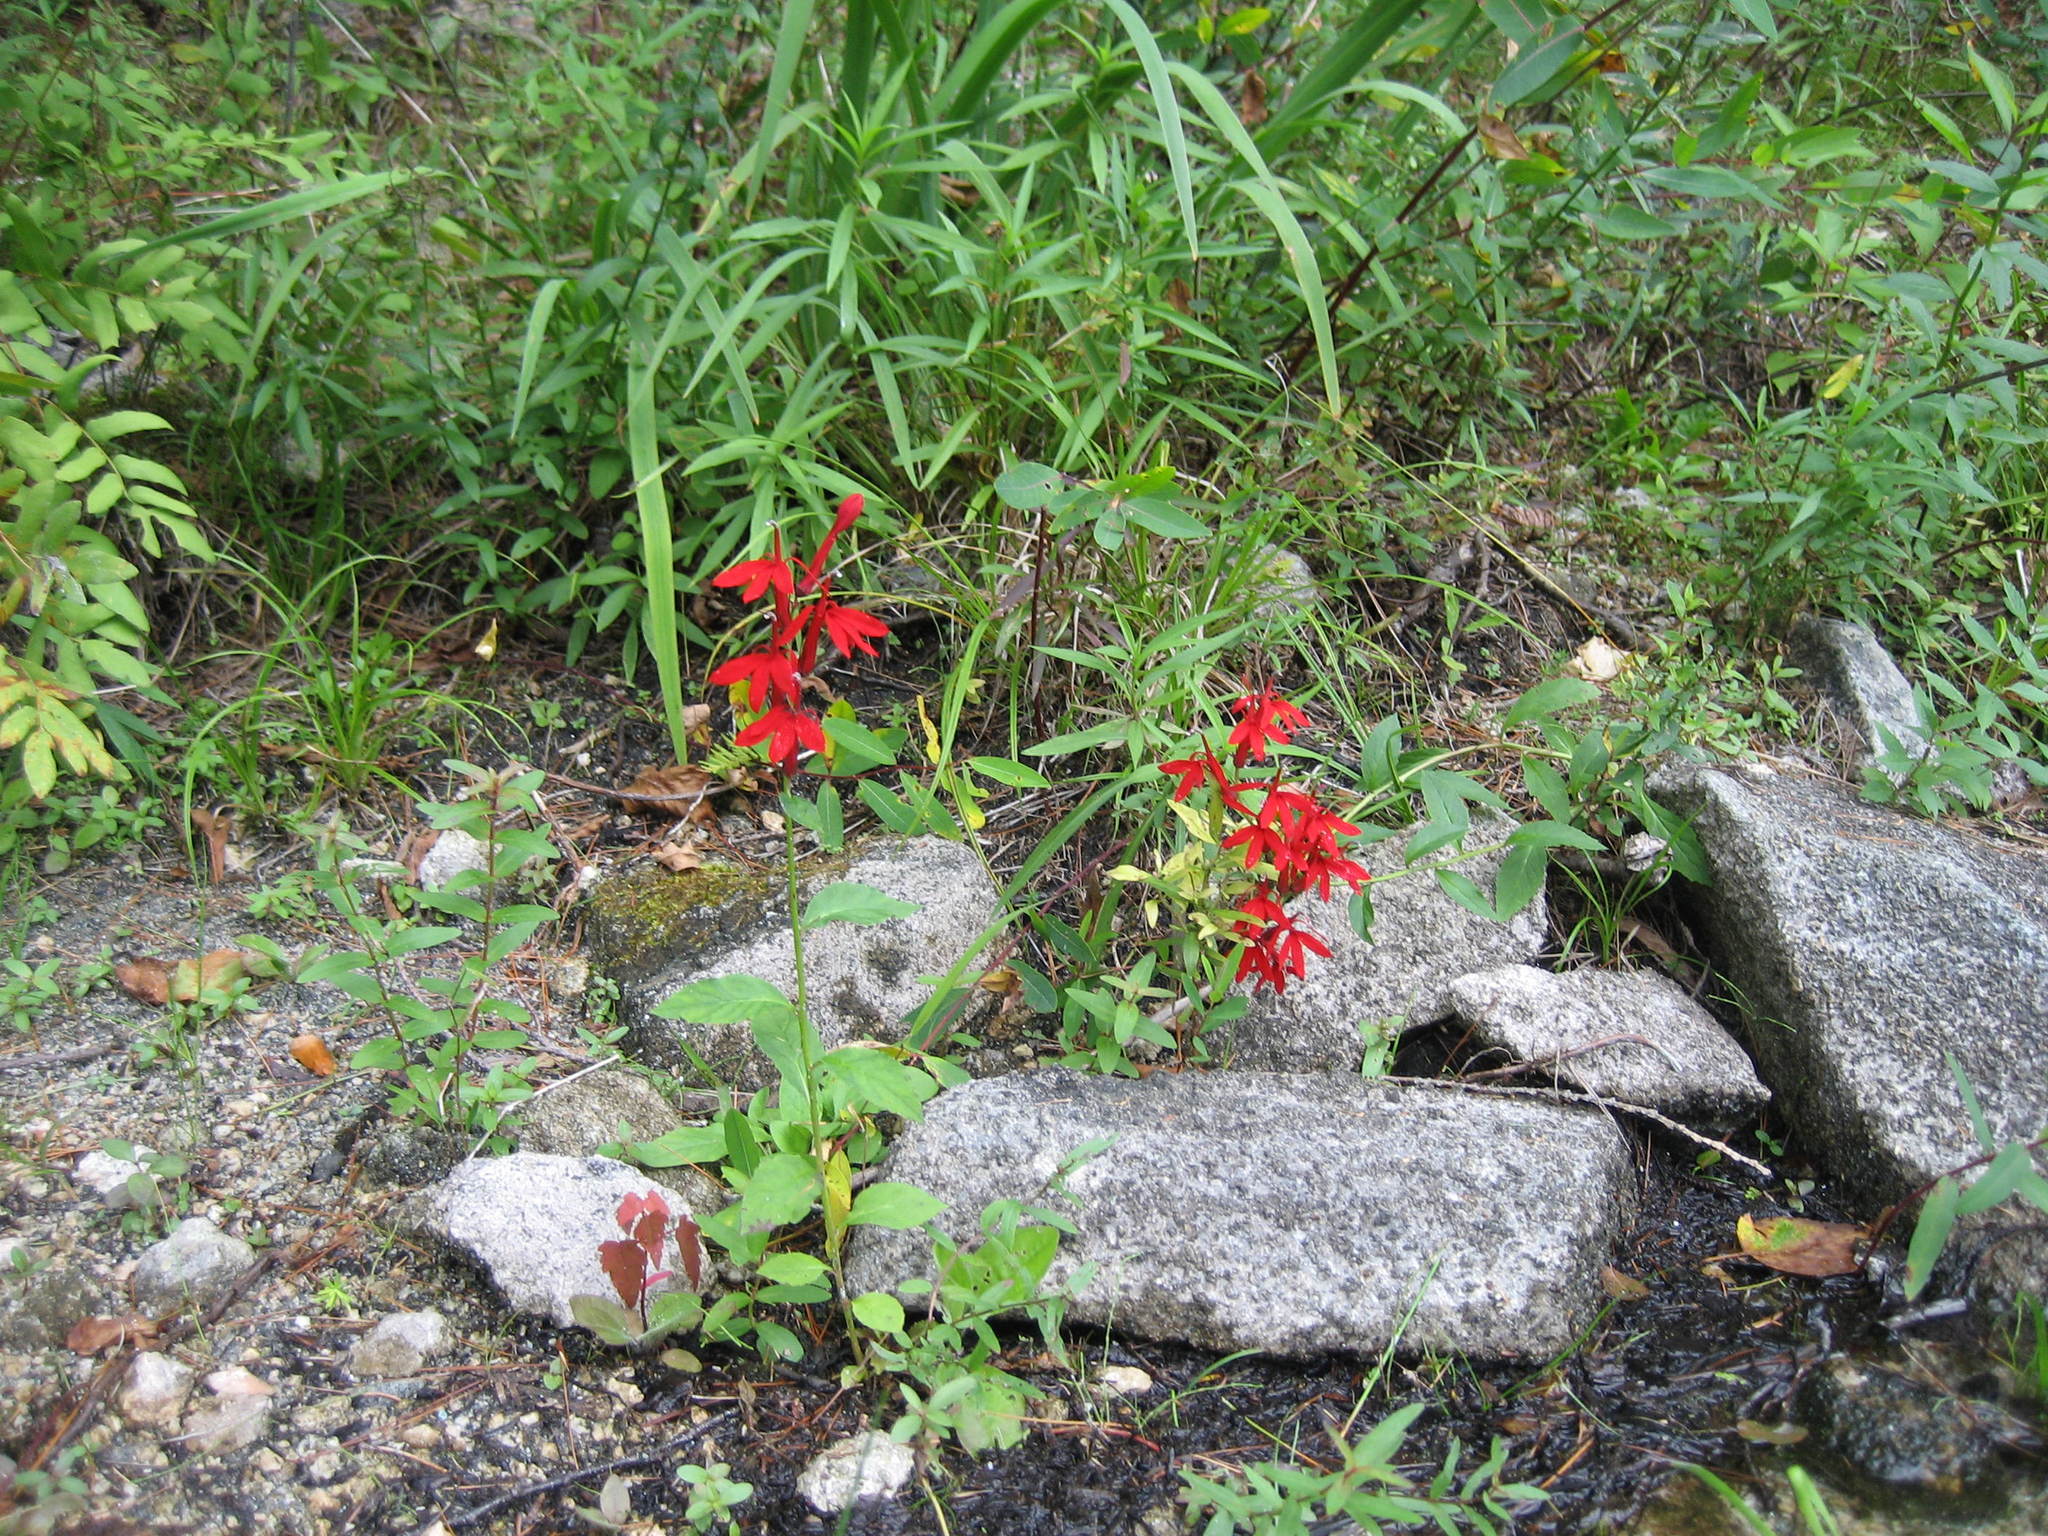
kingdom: Plantae
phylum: Tracheophyta
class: Magnoliopsida
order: Asterales
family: Campanulaceae
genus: Lobelia
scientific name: Lobelia cardinalis
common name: Cardinal flower
